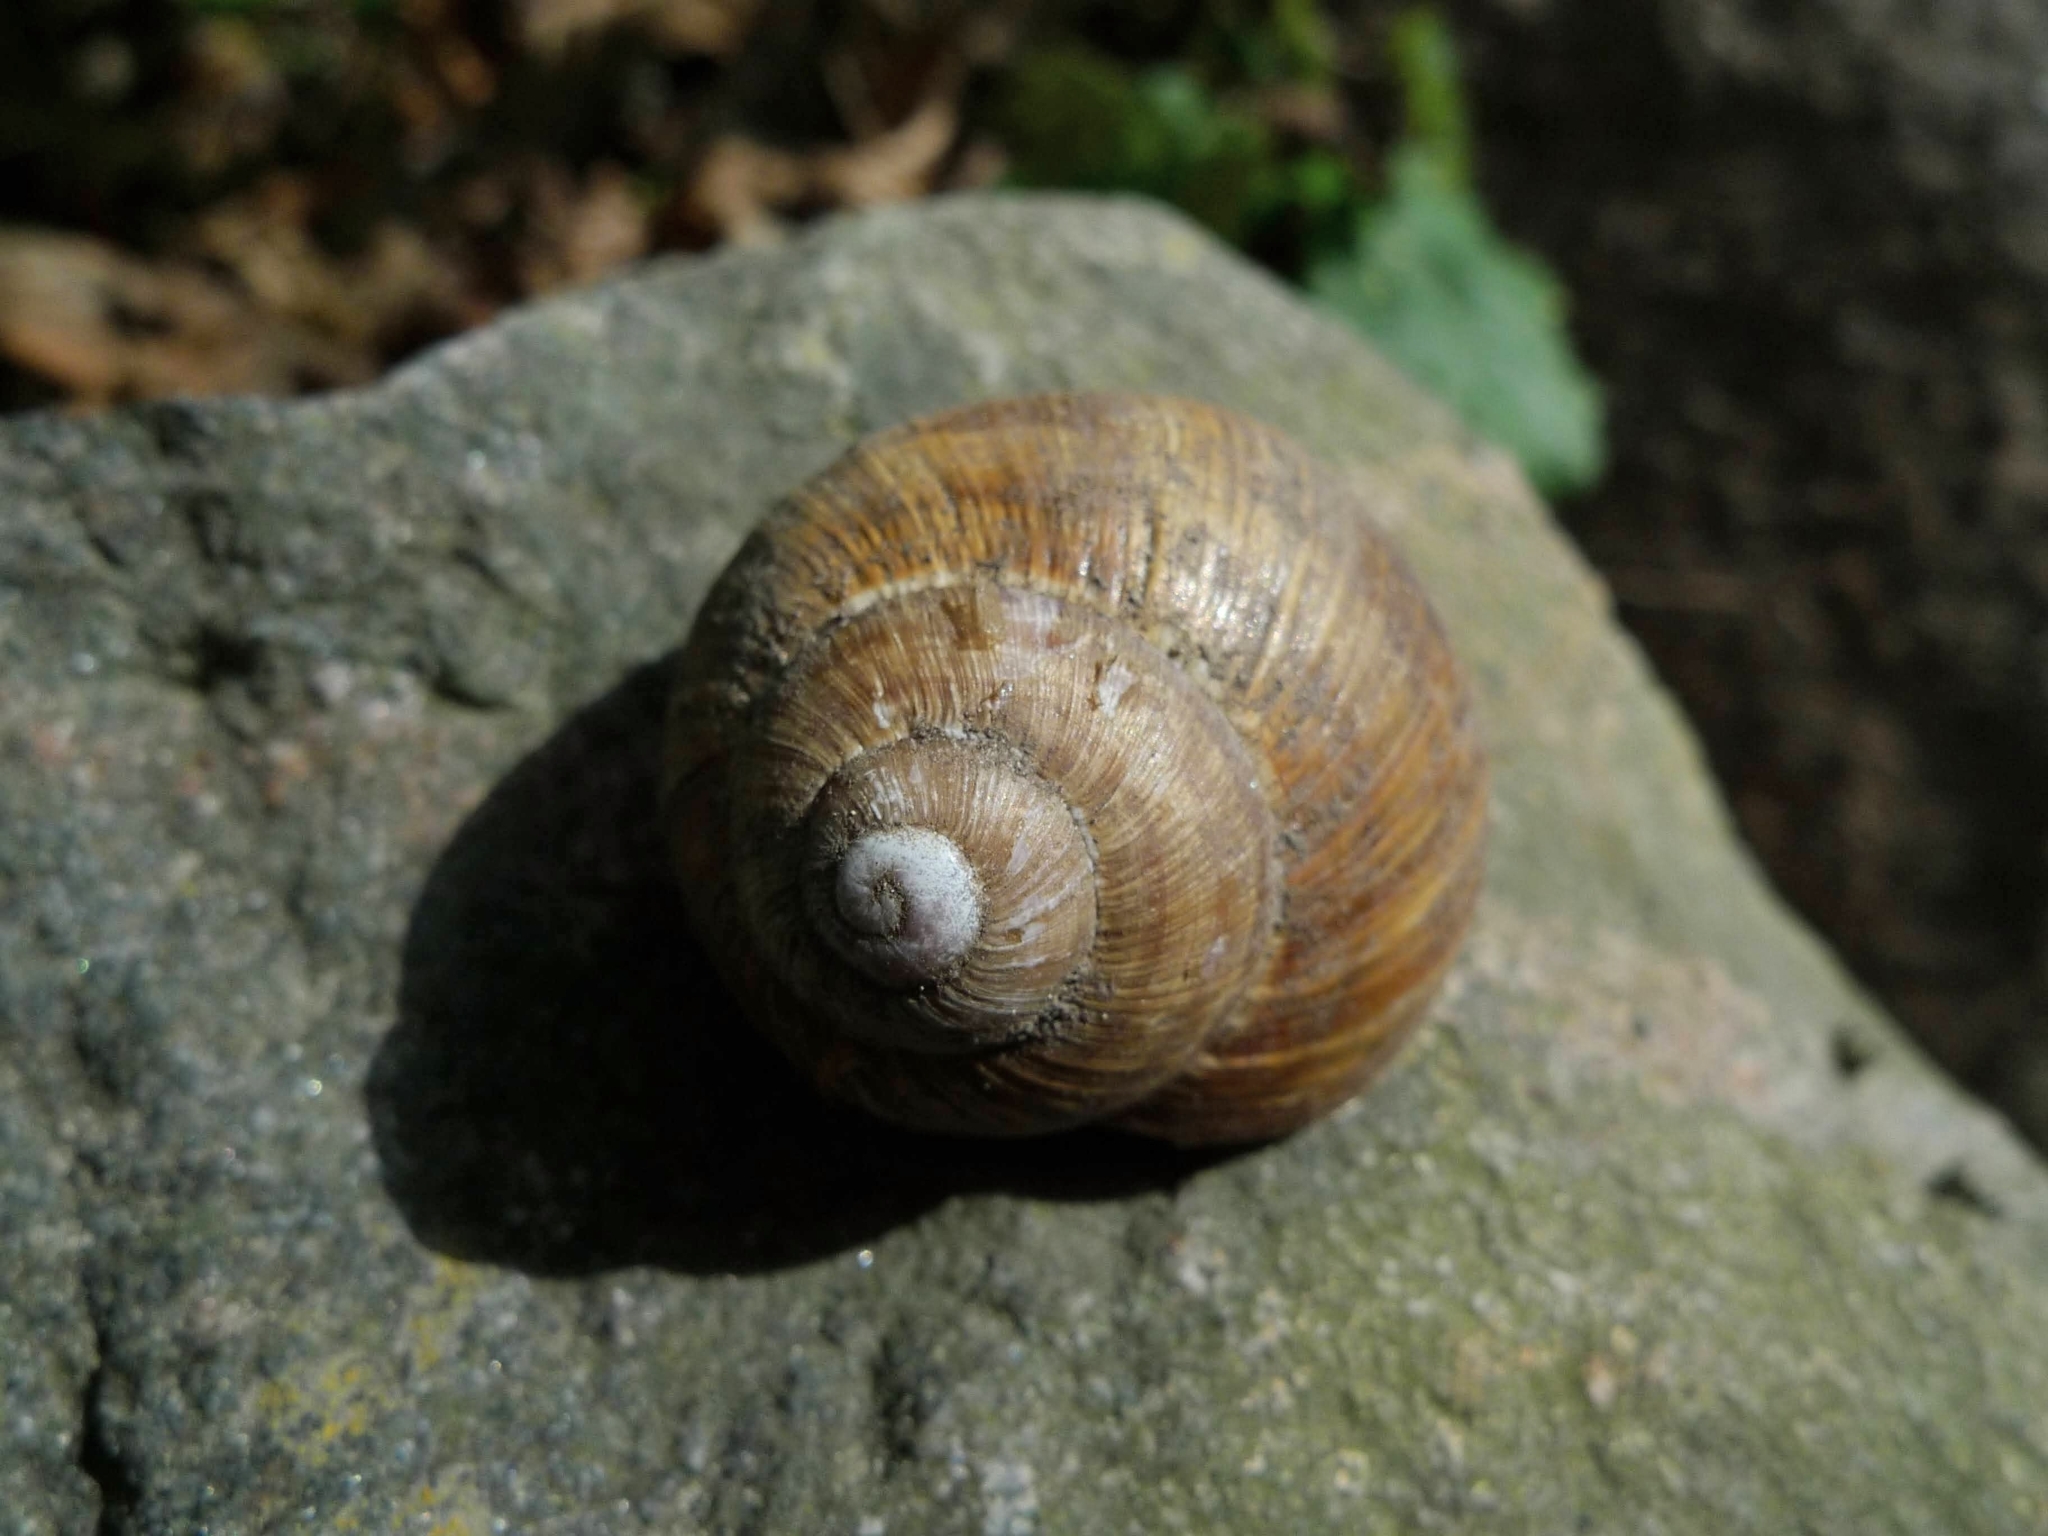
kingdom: Animalia
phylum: Mollusca
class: Gastropoda
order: Stylommatophora
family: Helicidae
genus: Helix
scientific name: Helix pomatia
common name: Roman snail
